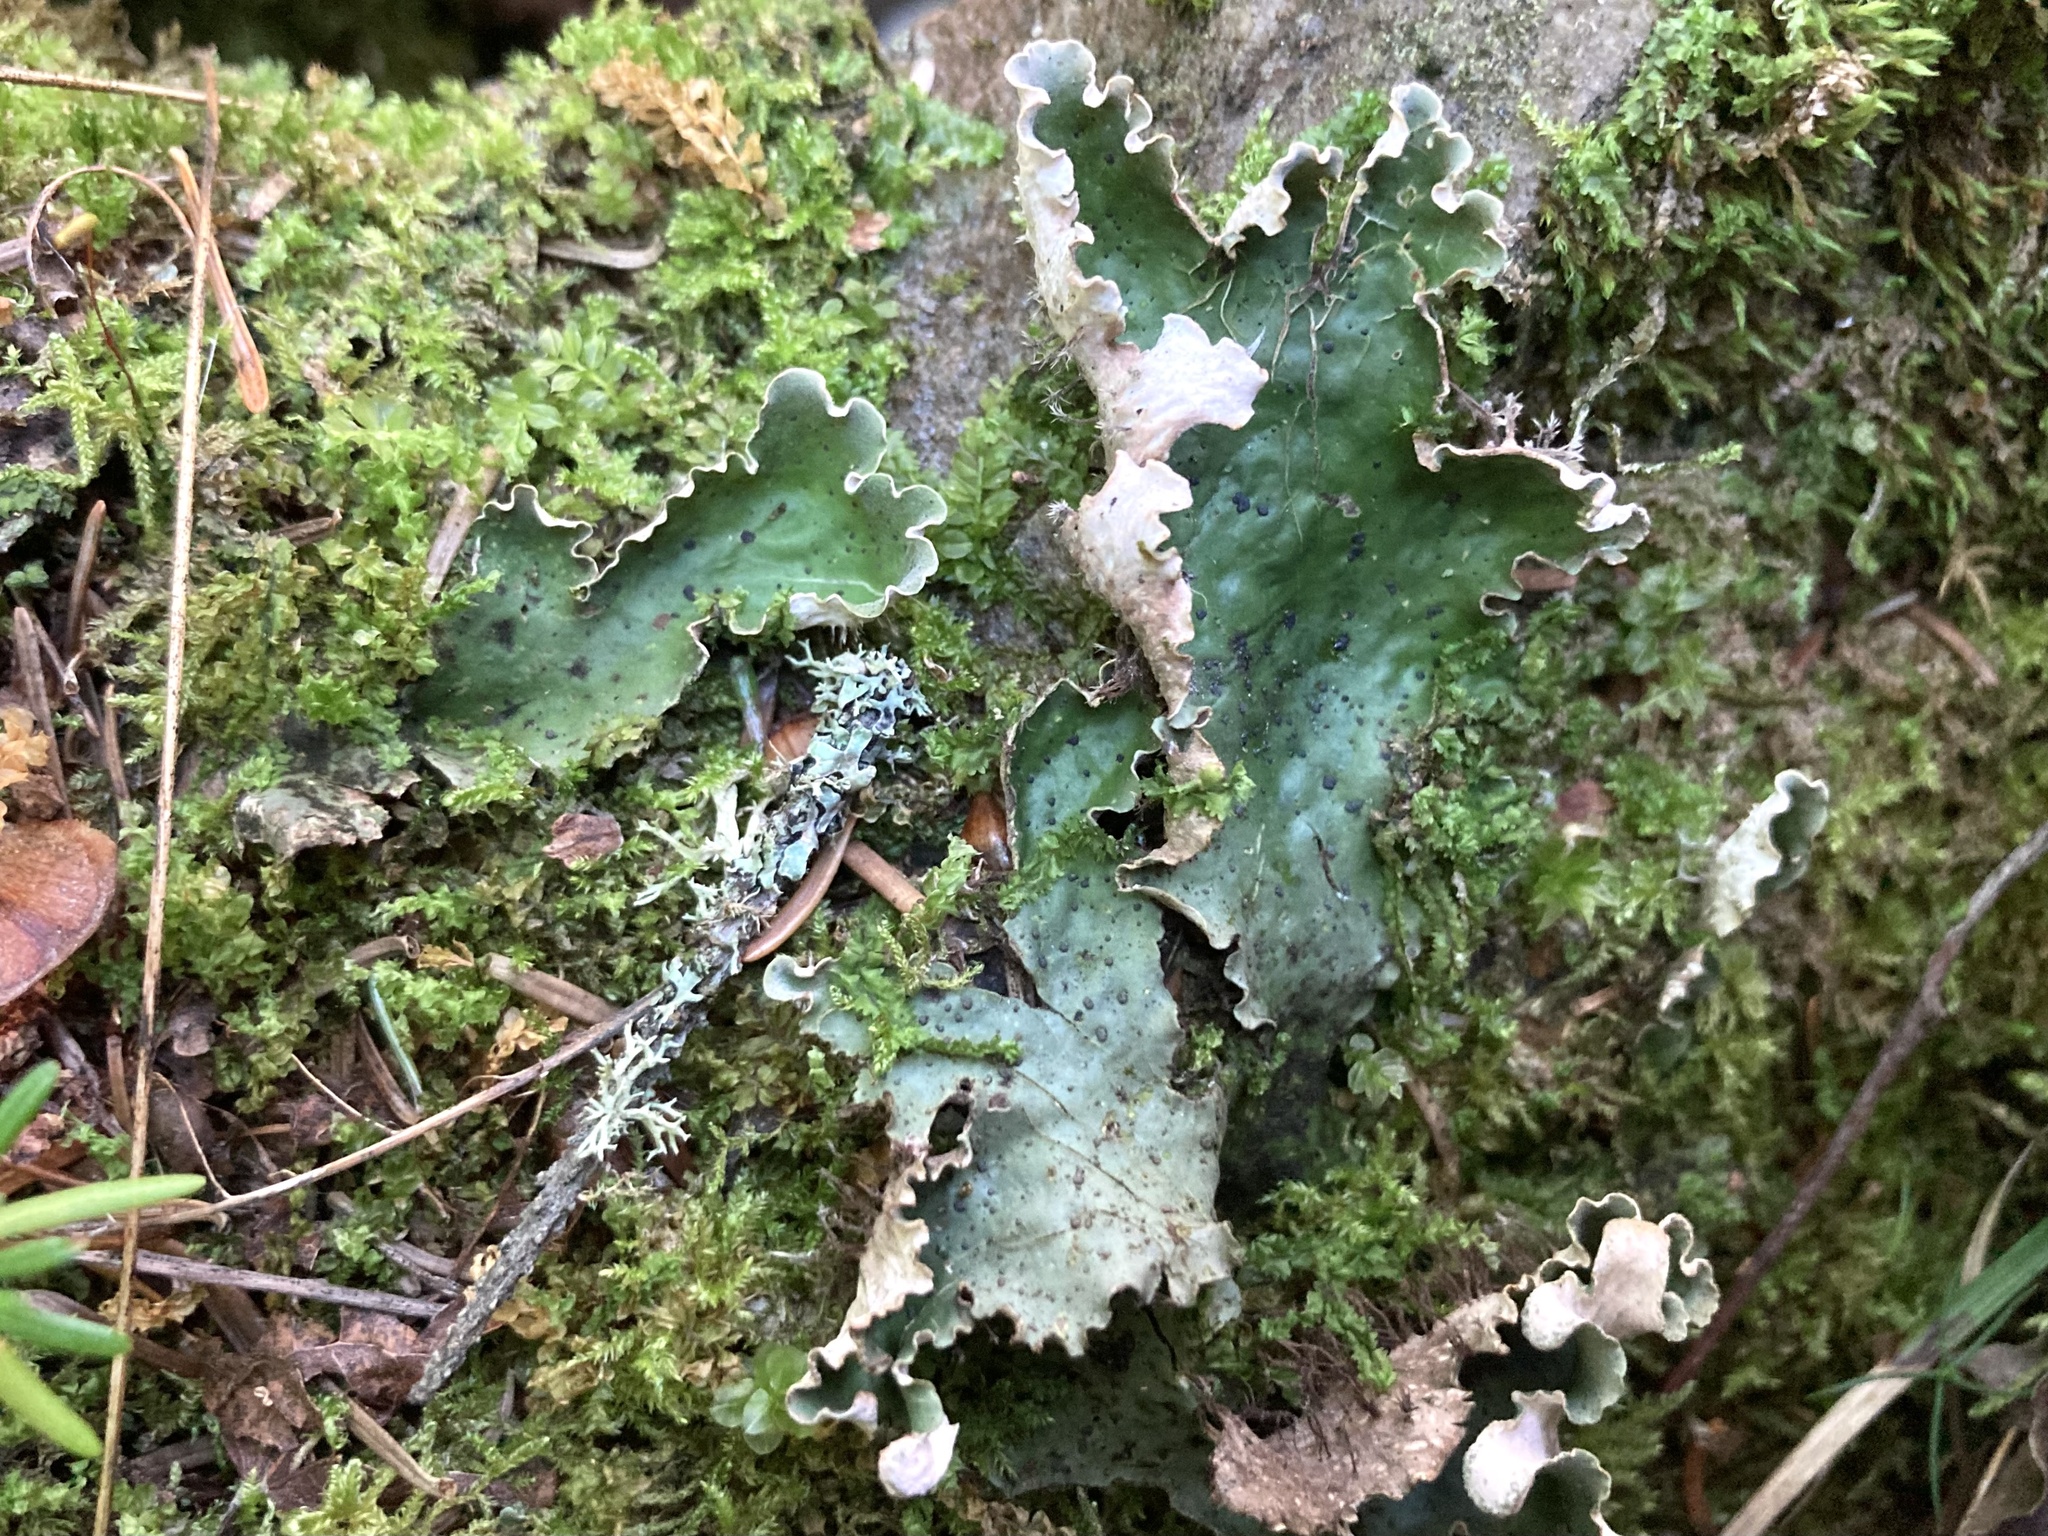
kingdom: Fungi
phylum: Ascomycota
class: Lecanoromycetes
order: Peltigerales
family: Peltigeraceae
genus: Peltigera
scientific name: Peltigera leucophlebia
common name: Ruffled freckle pelt lichen
